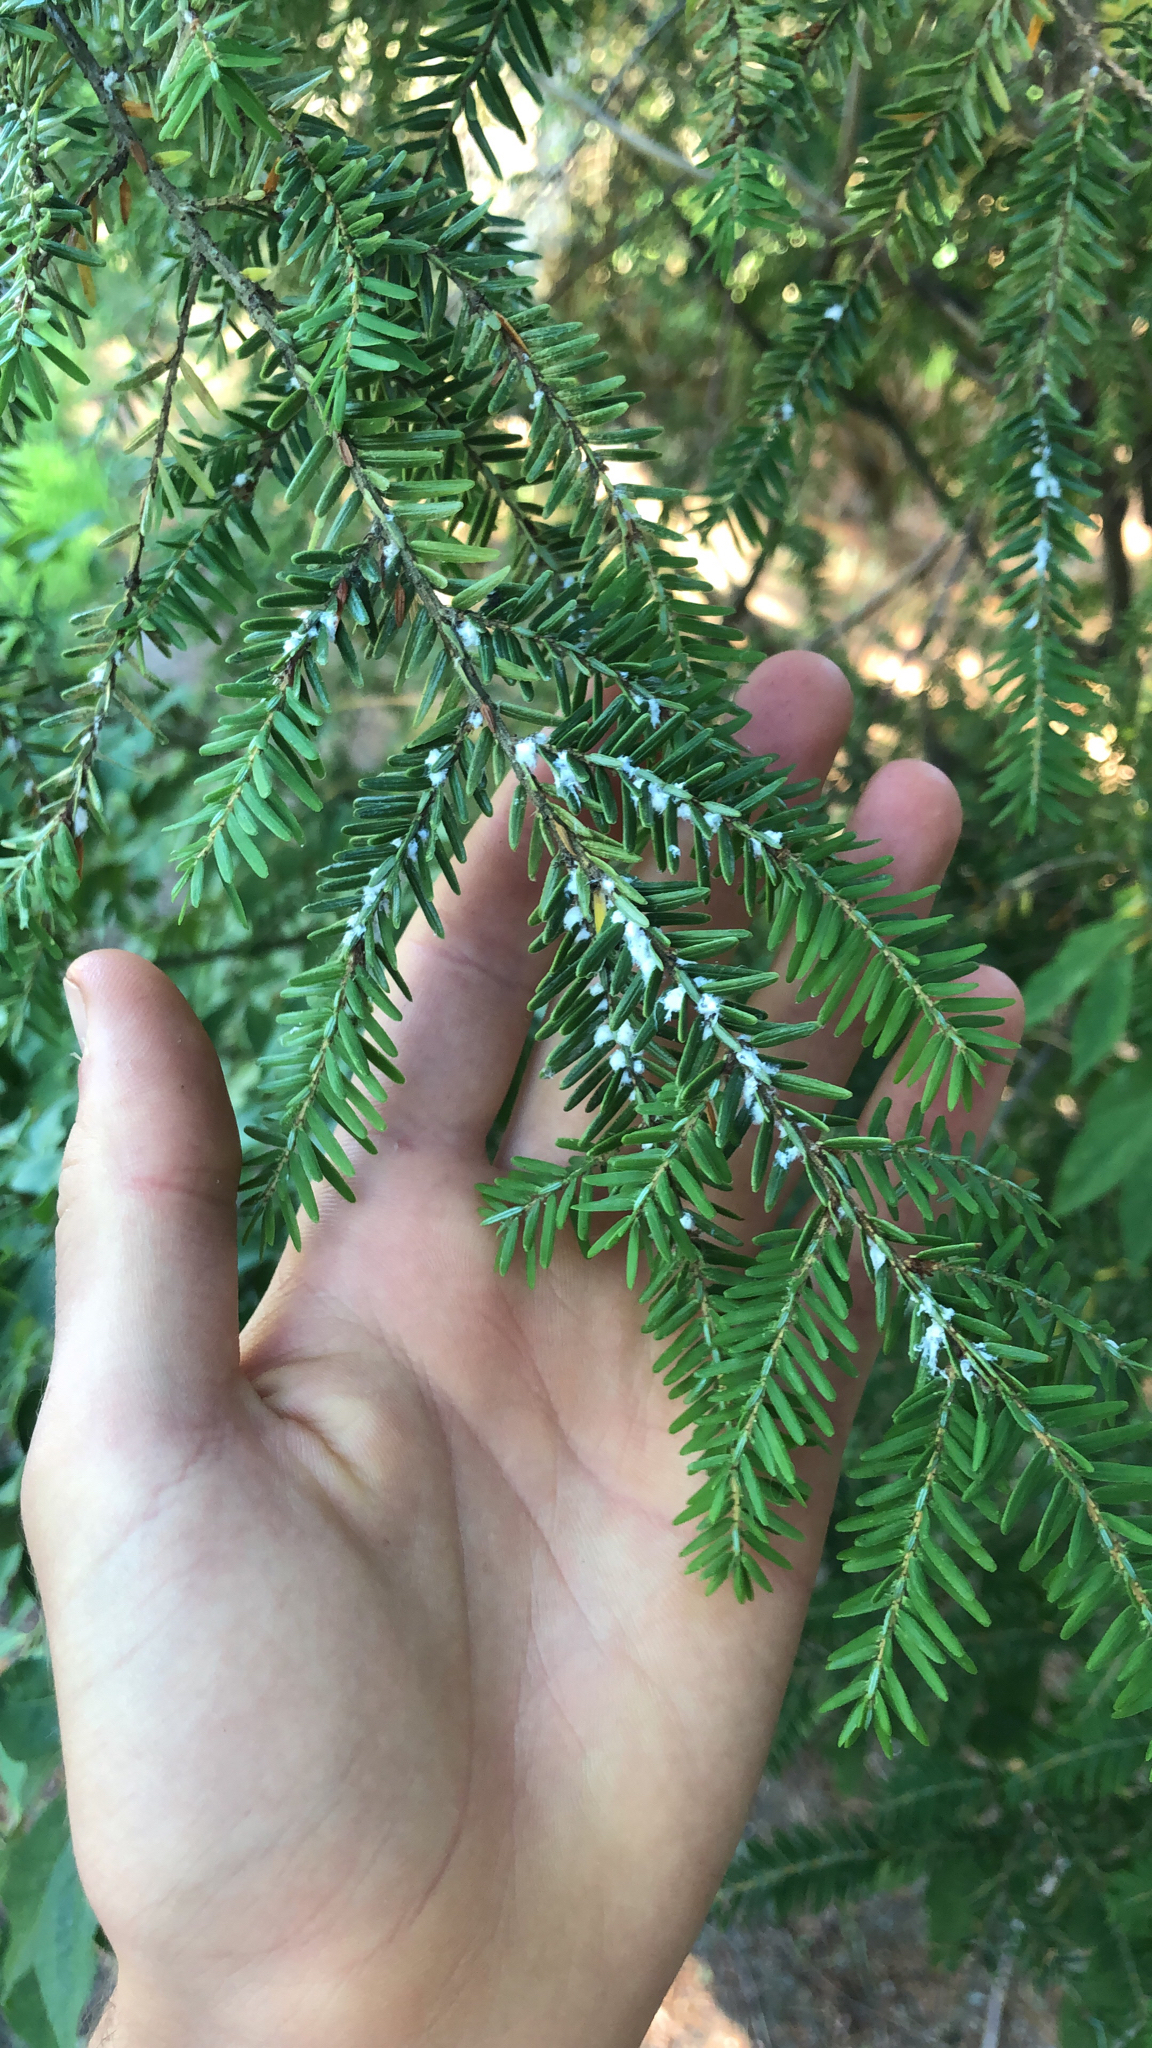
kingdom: Animalia
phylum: Arthropoda
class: Insecta
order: Hemiptera
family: Adelgidae
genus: Adelges
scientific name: Adelges tsugae
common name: Hemlock woolly adelgid
